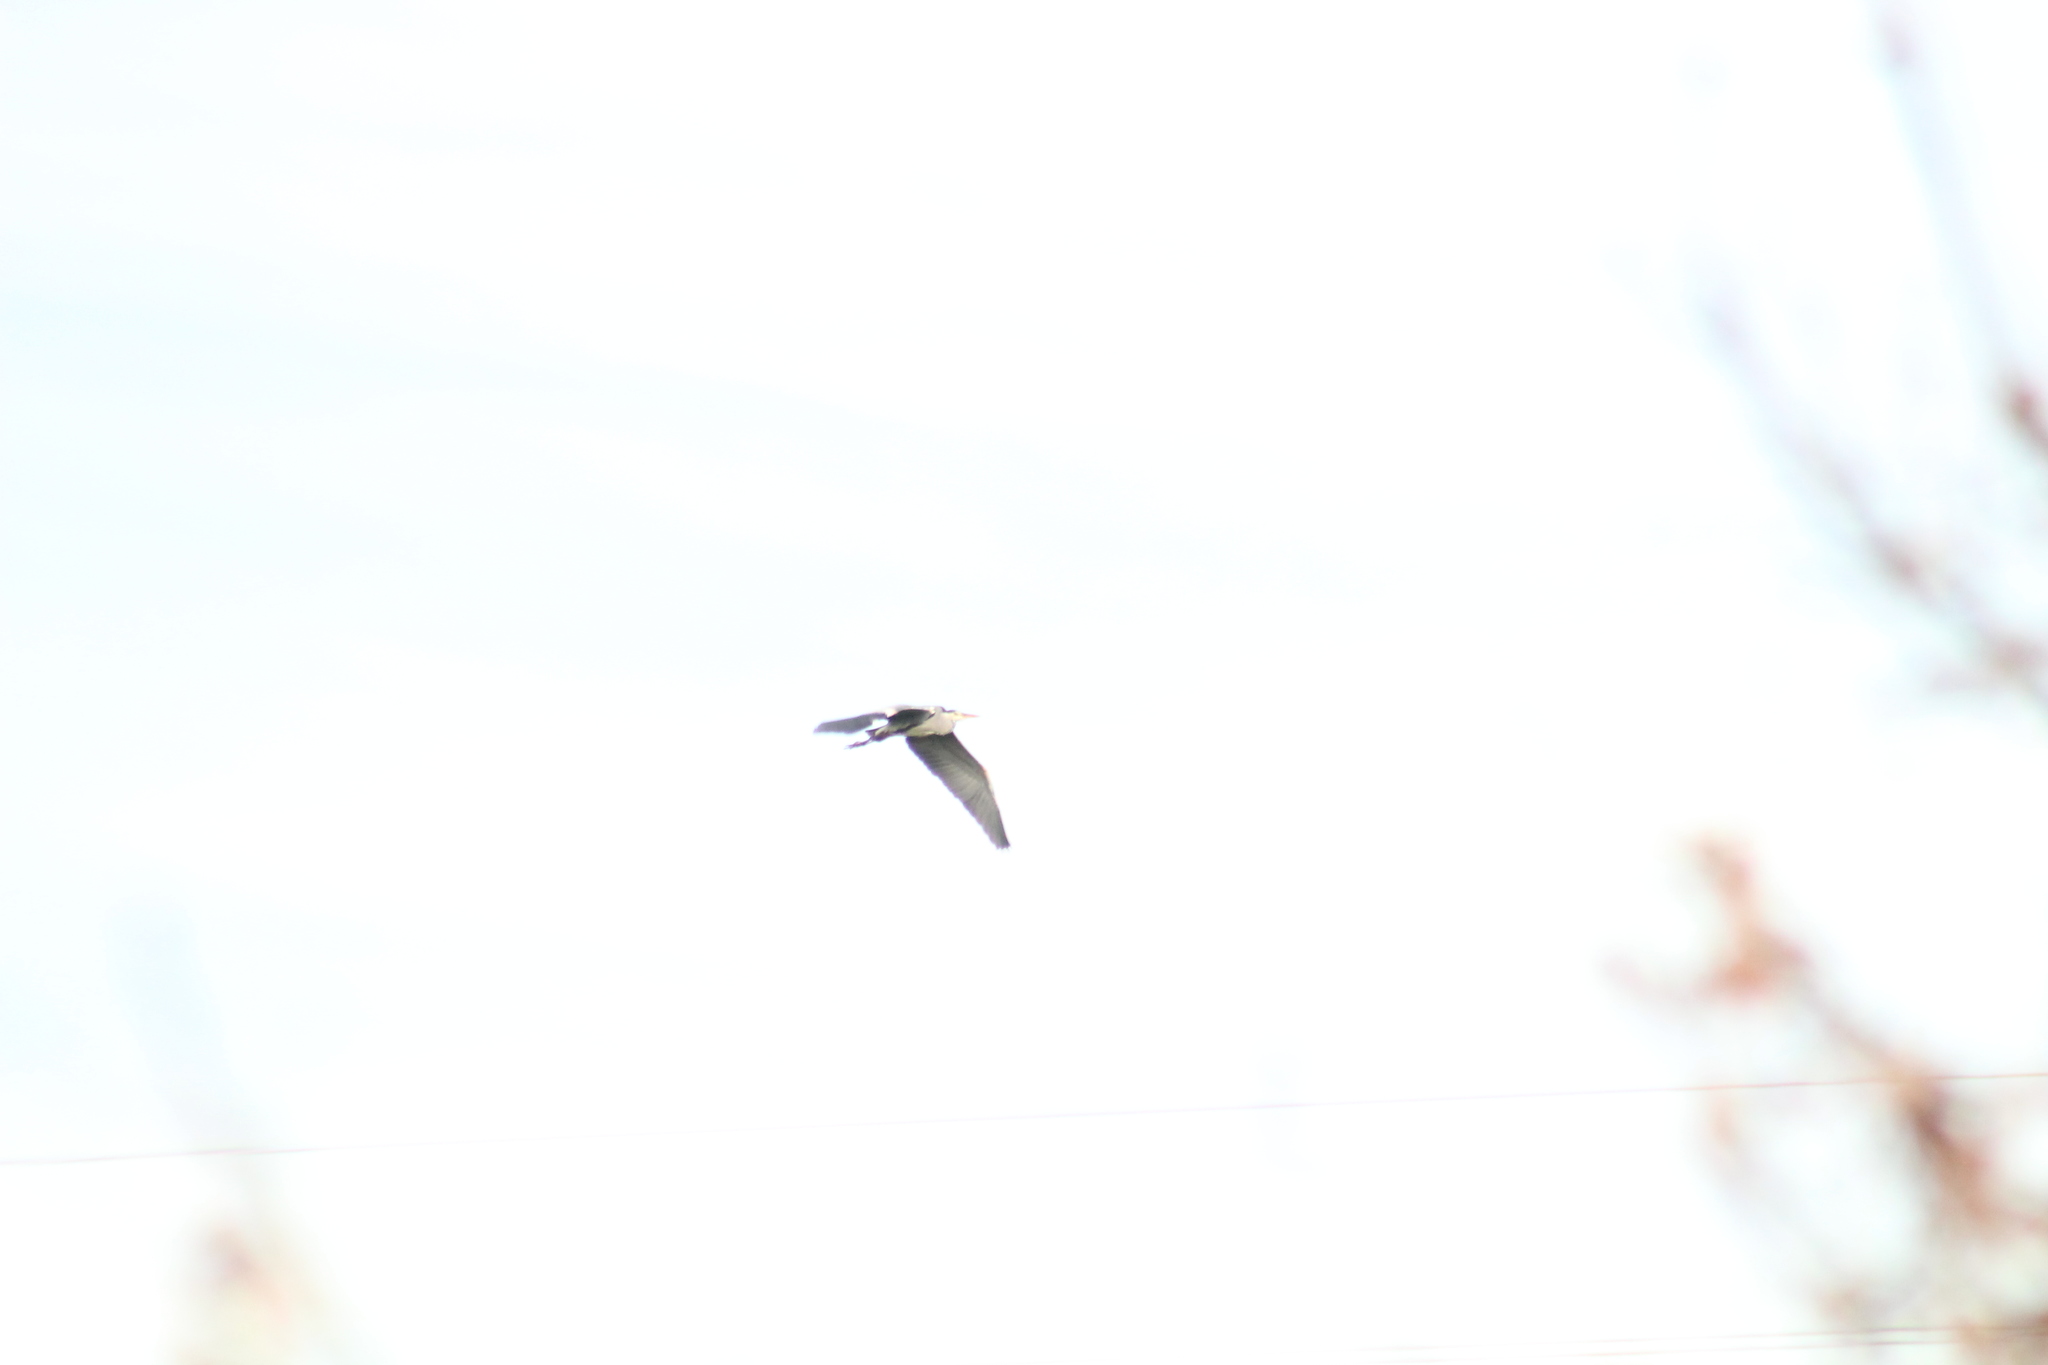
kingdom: Animalia
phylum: Chordata
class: Aves
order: Pelecaniformes
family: Ardeidae
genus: Ardea
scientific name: Ardea cinerea
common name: Grey heron
